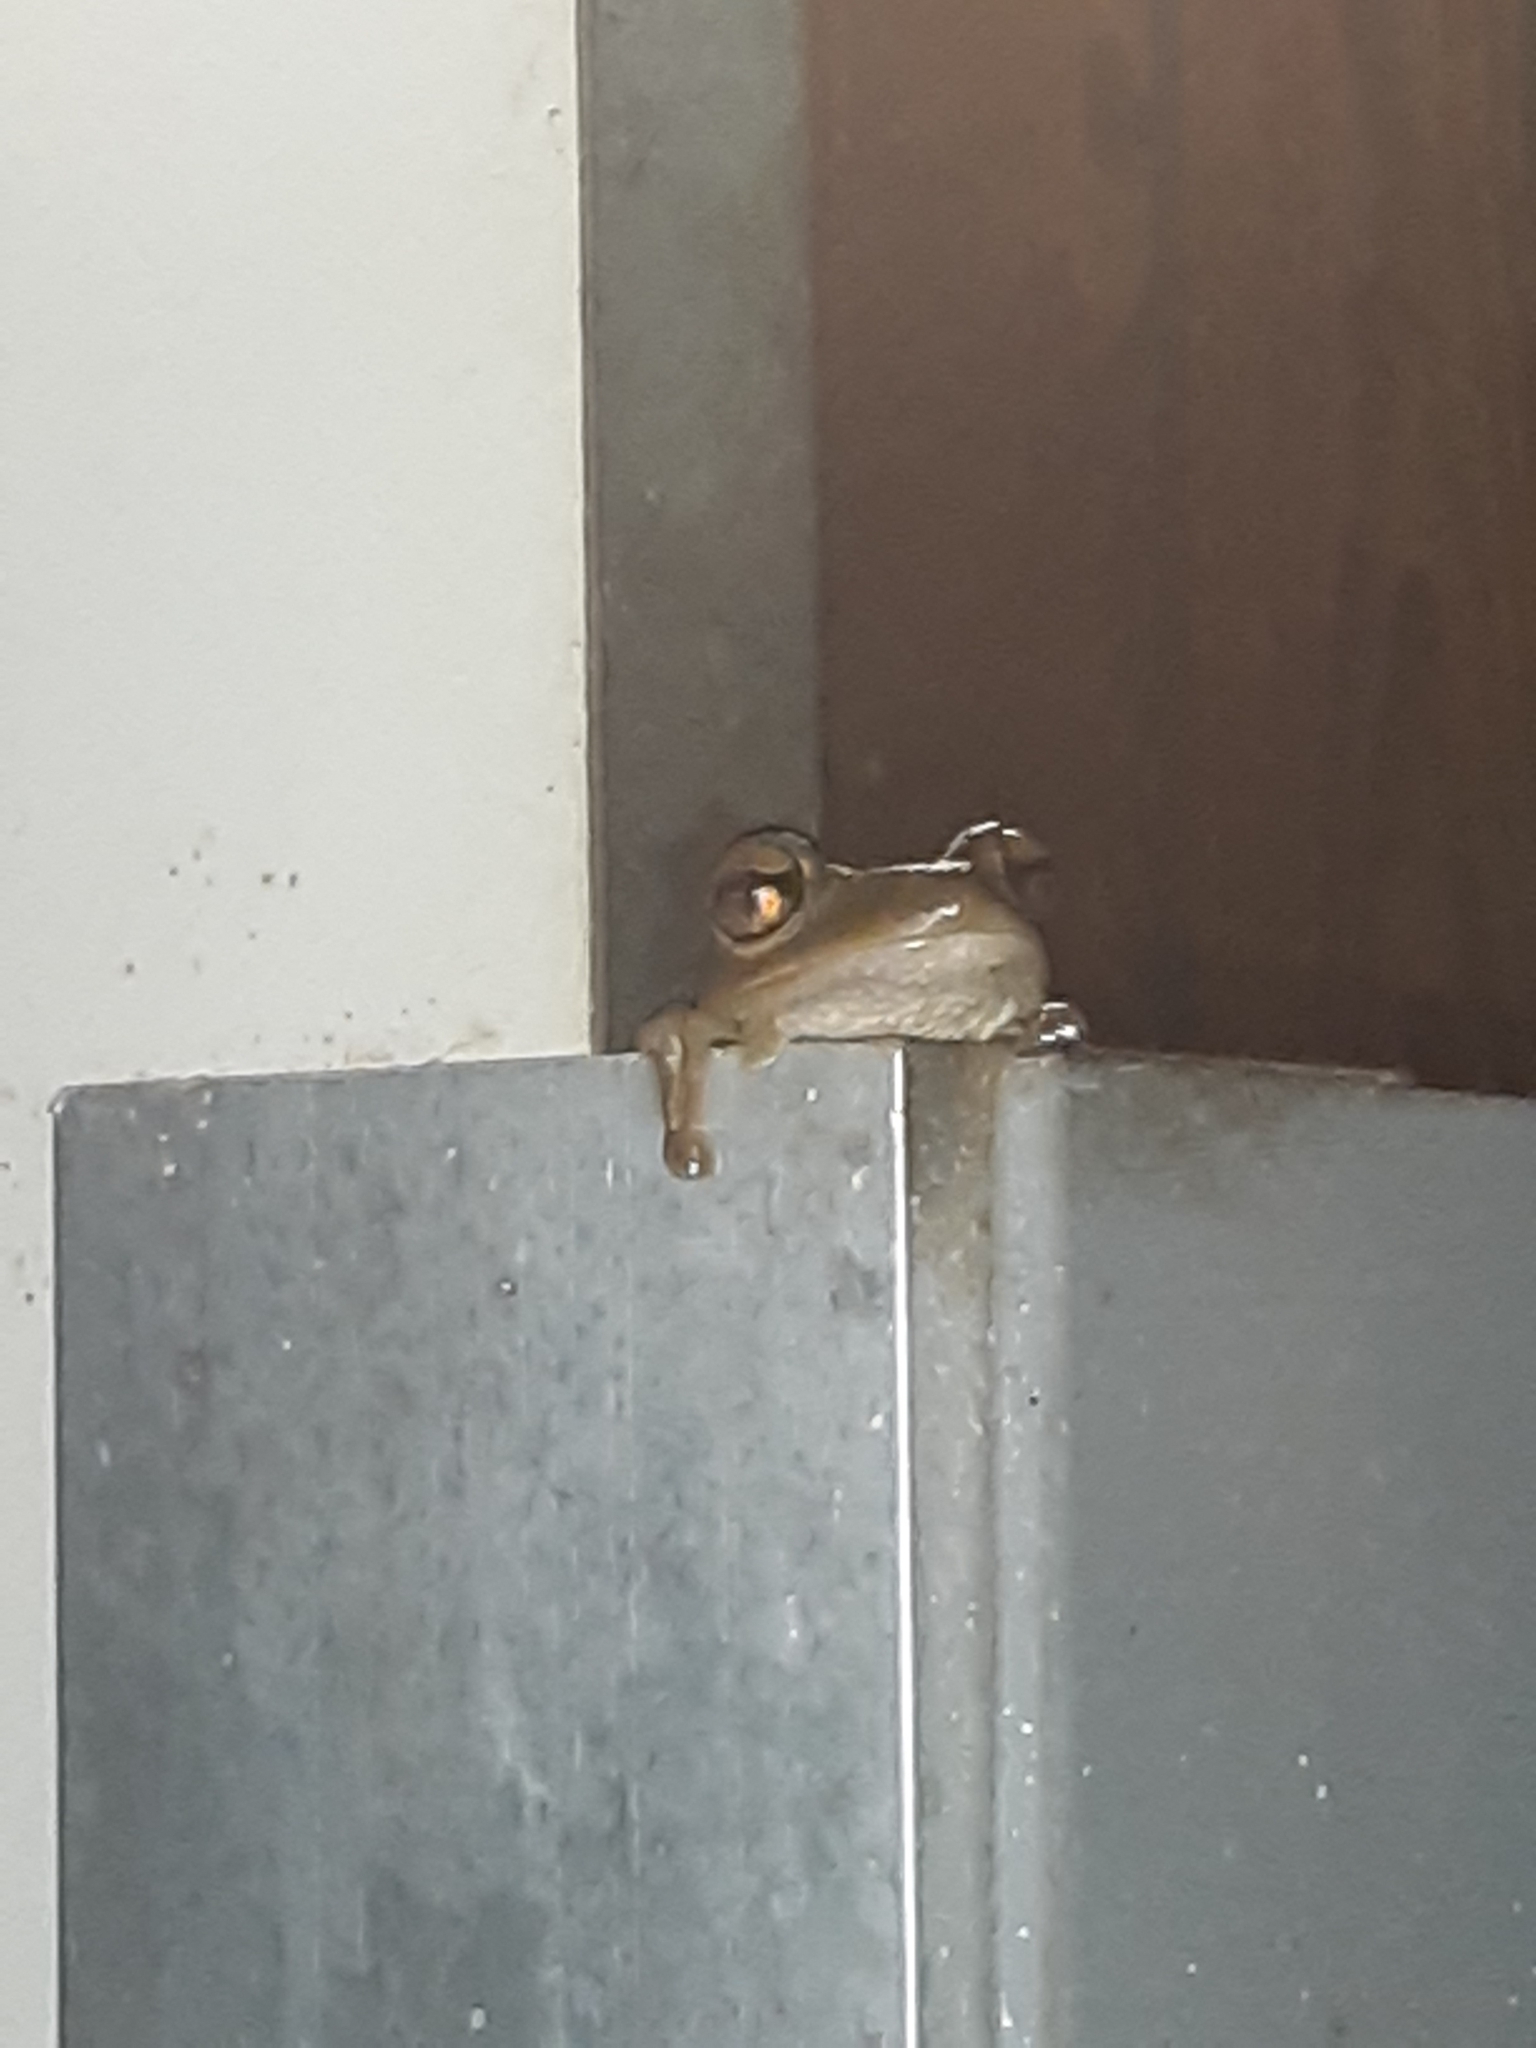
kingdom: Animalia
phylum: Chordata
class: Amphibia
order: Anura
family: Hylidae
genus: Osteopilus
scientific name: Osteopilus septentrionalis
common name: Cuban treefrog
